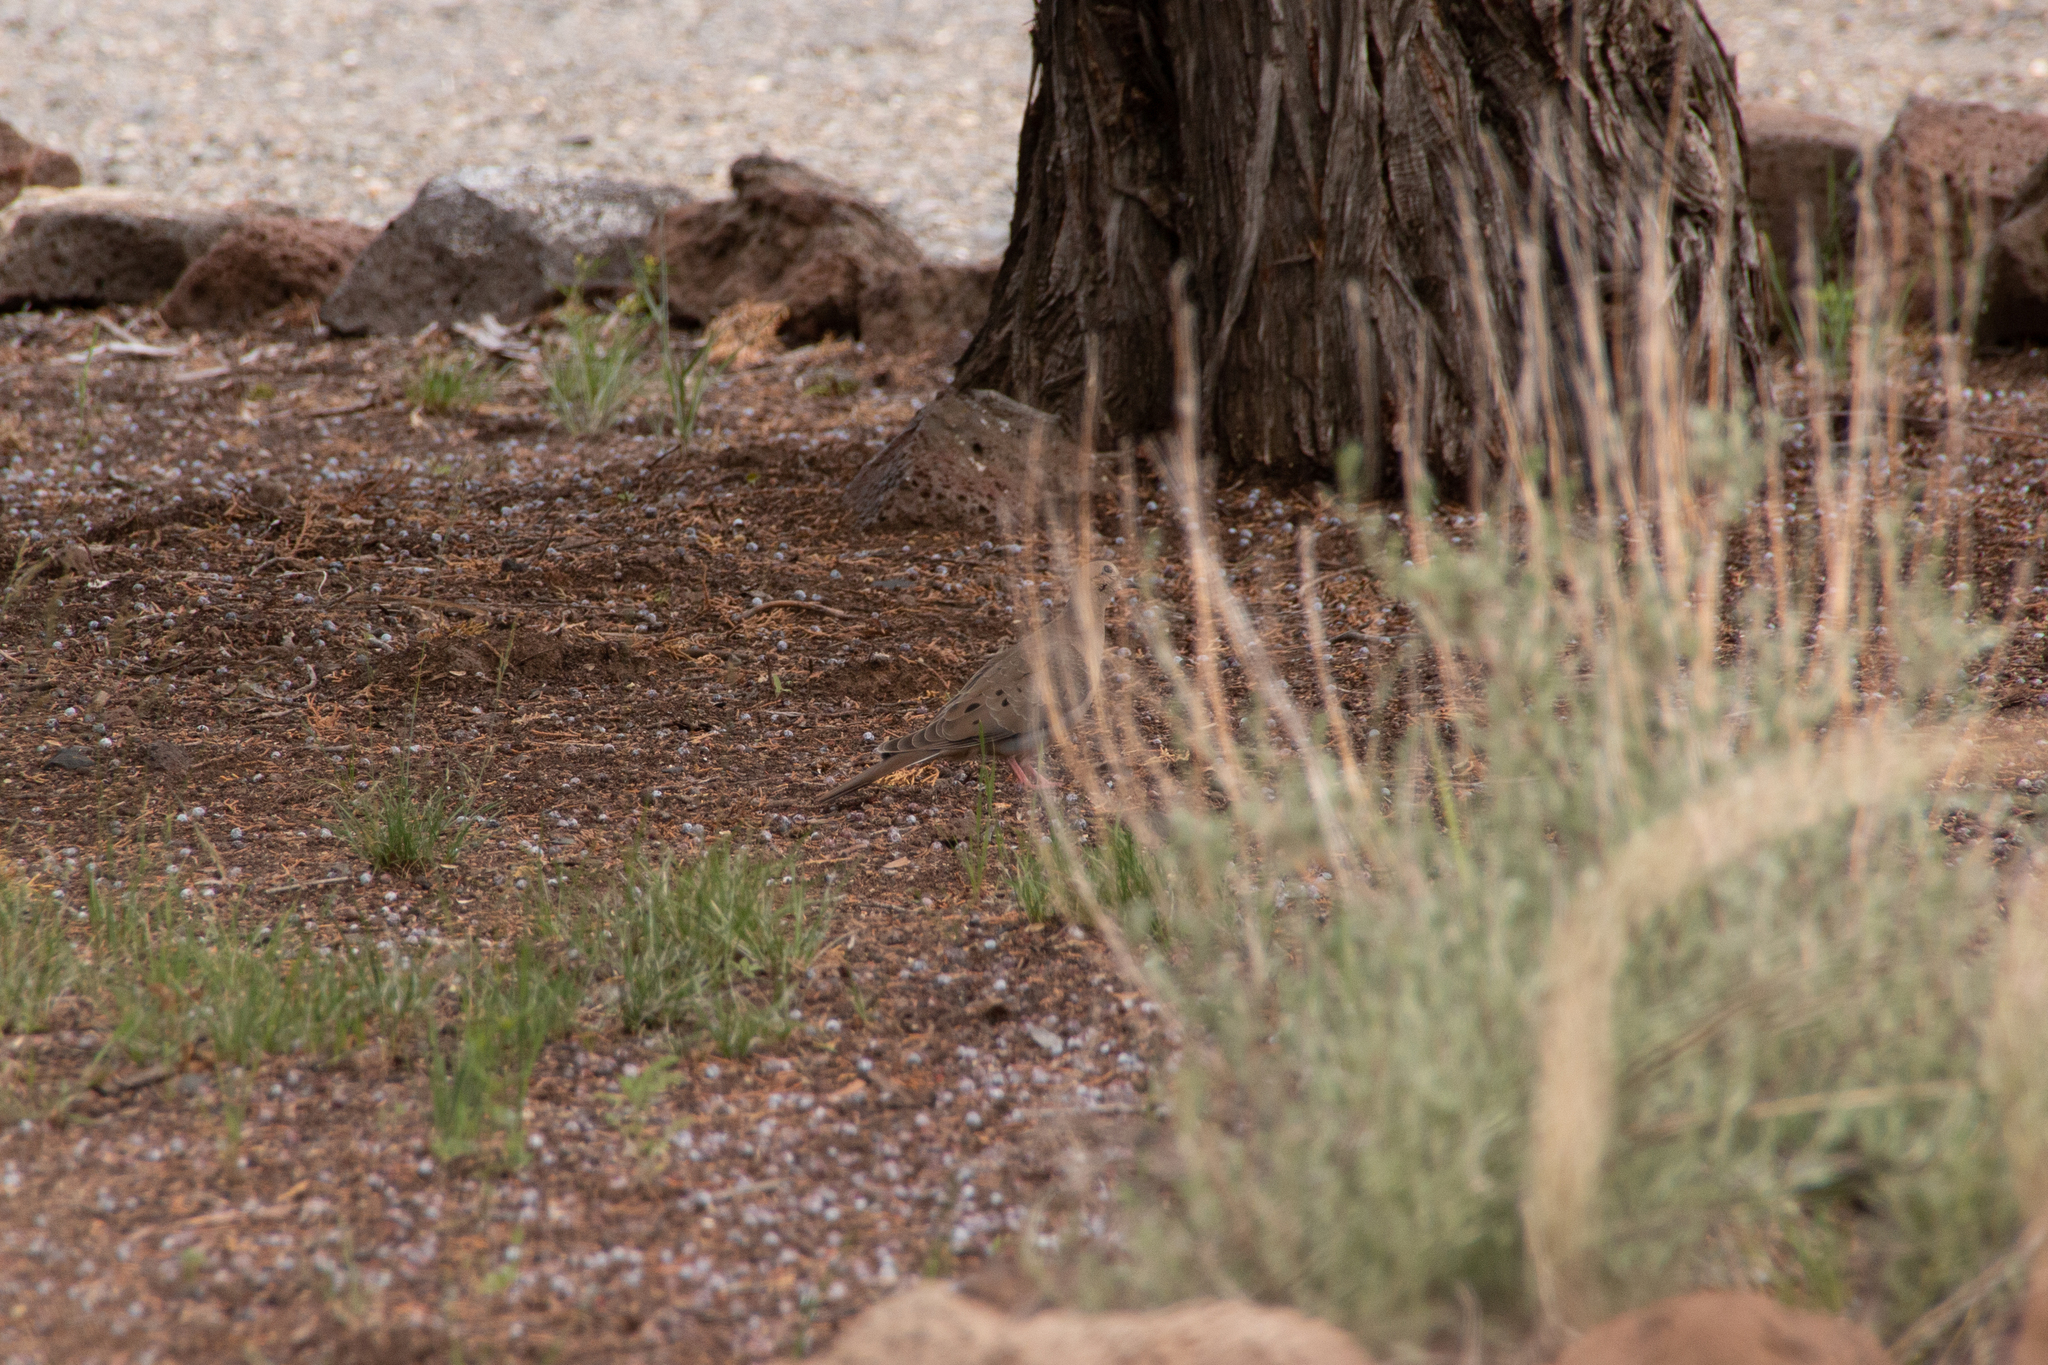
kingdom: Animalia
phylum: Chordata
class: Aves
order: Columbiformes
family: Columbidae
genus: Zenaida
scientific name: Zenaida macroura
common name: Mourning dove
